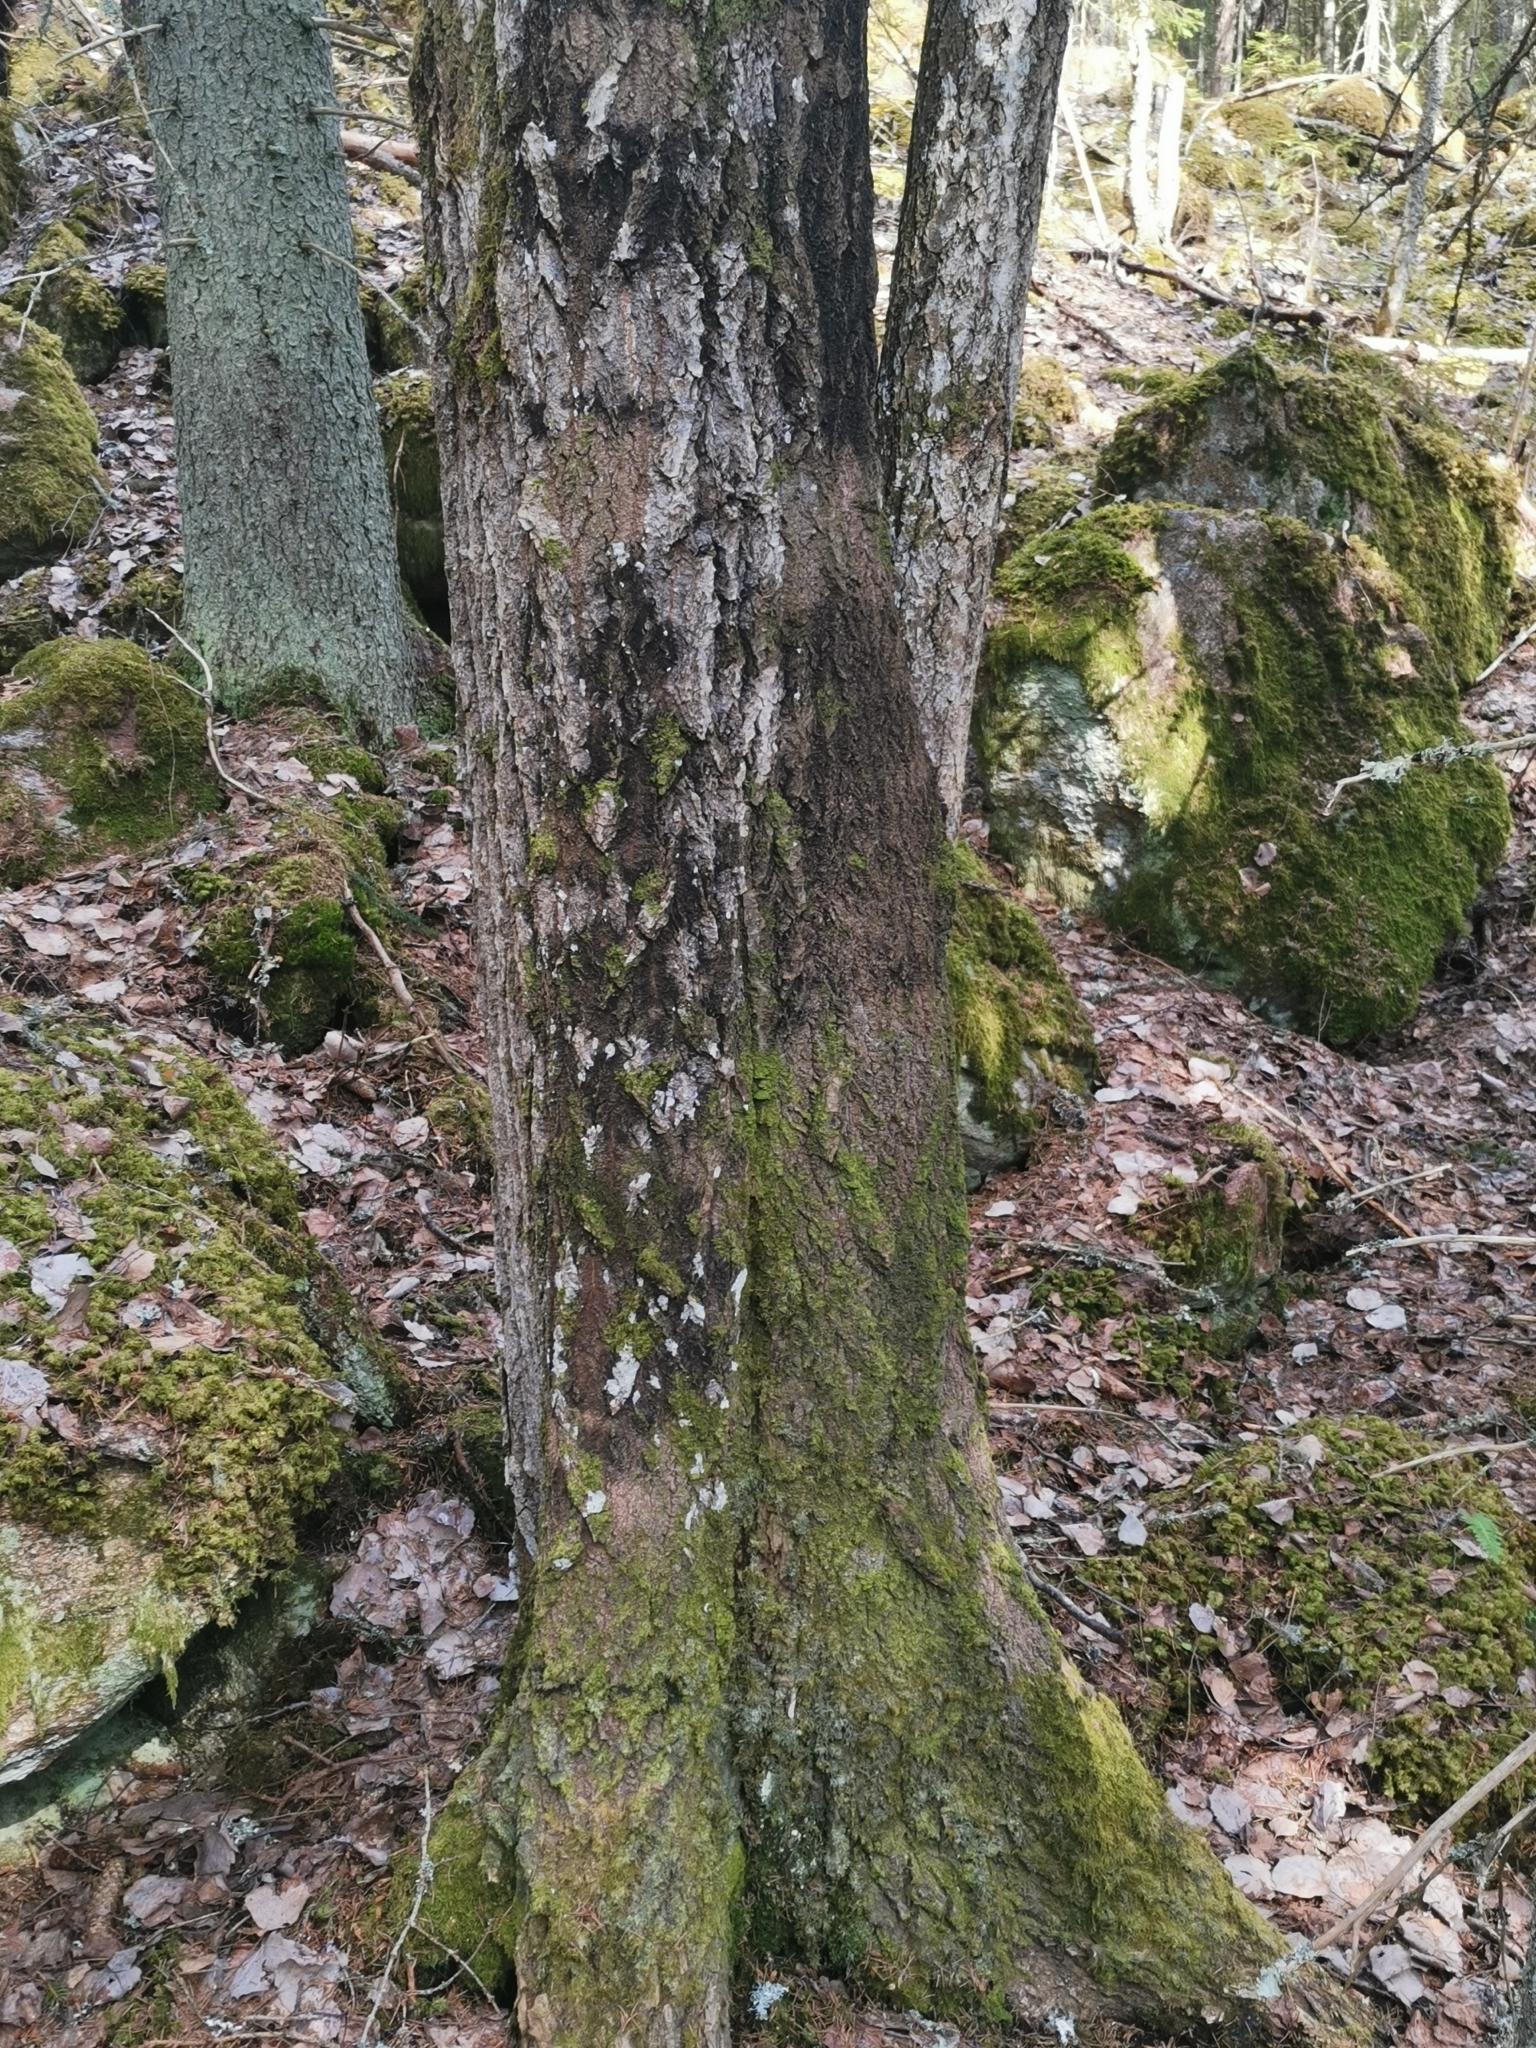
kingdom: Plantae
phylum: Marchantiophyta
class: Jungermanniopsida
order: Metzgeriales
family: Metzgeriaceae
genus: Metzgeria
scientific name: Metzgeria furcata
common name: Forked veilwort
